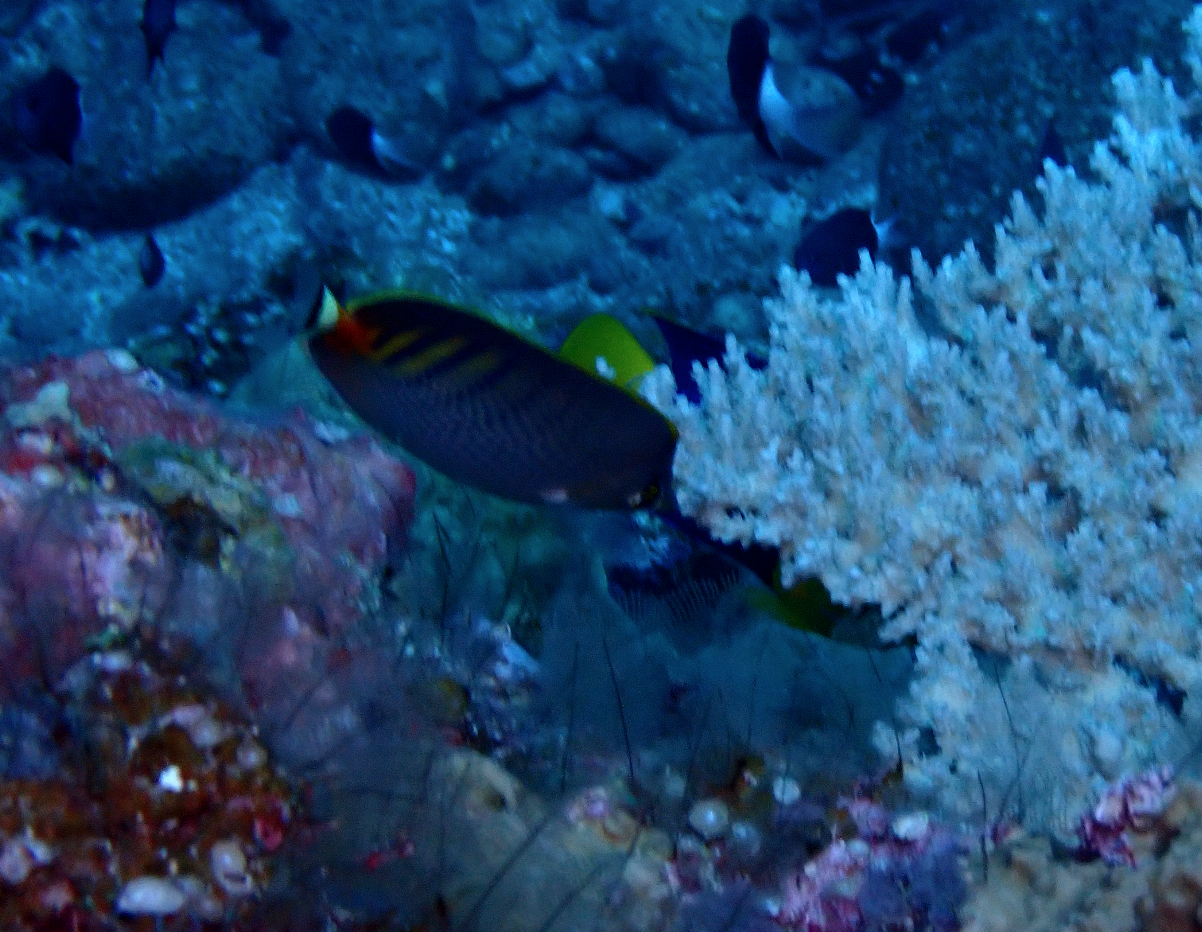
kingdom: Animalia
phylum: Chordata
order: Perciformes
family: Chaetodontidae
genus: Chaetodon
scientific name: Chaetodon punctatofasciatus
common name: Spot-banded butterflyfish
